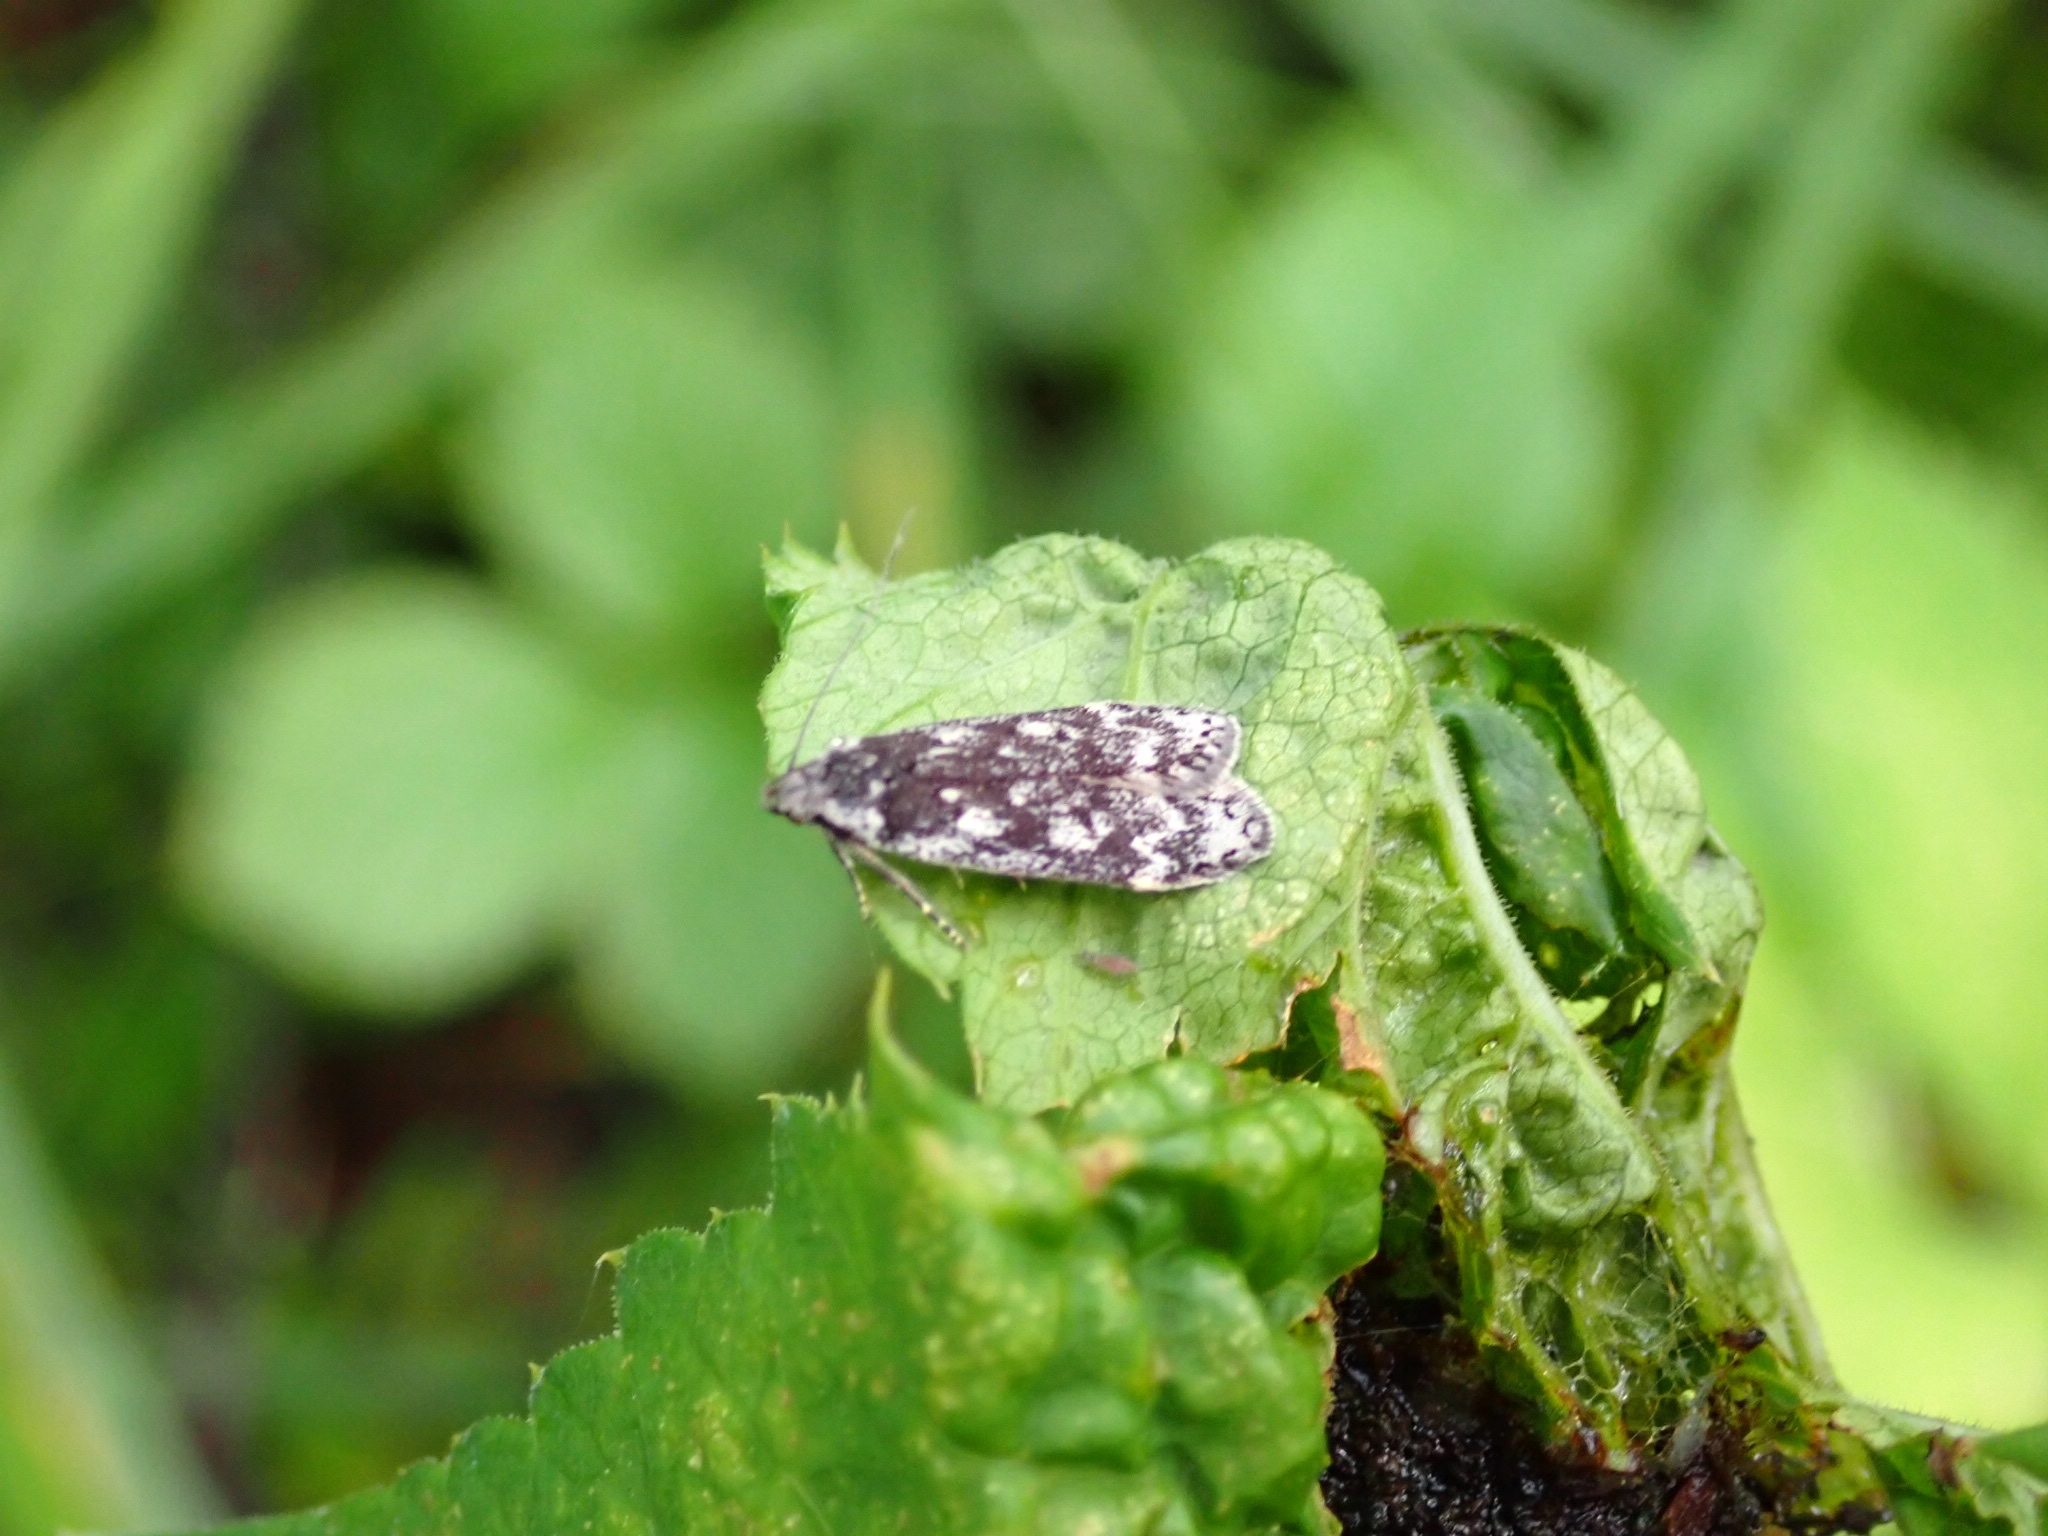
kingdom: Animalia
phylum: Arthropoda
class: Insecta
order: Lepidoptera
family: Gelechiidae
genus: Anacampsis
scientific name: Anacampsis blattariella
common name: Birch sober
